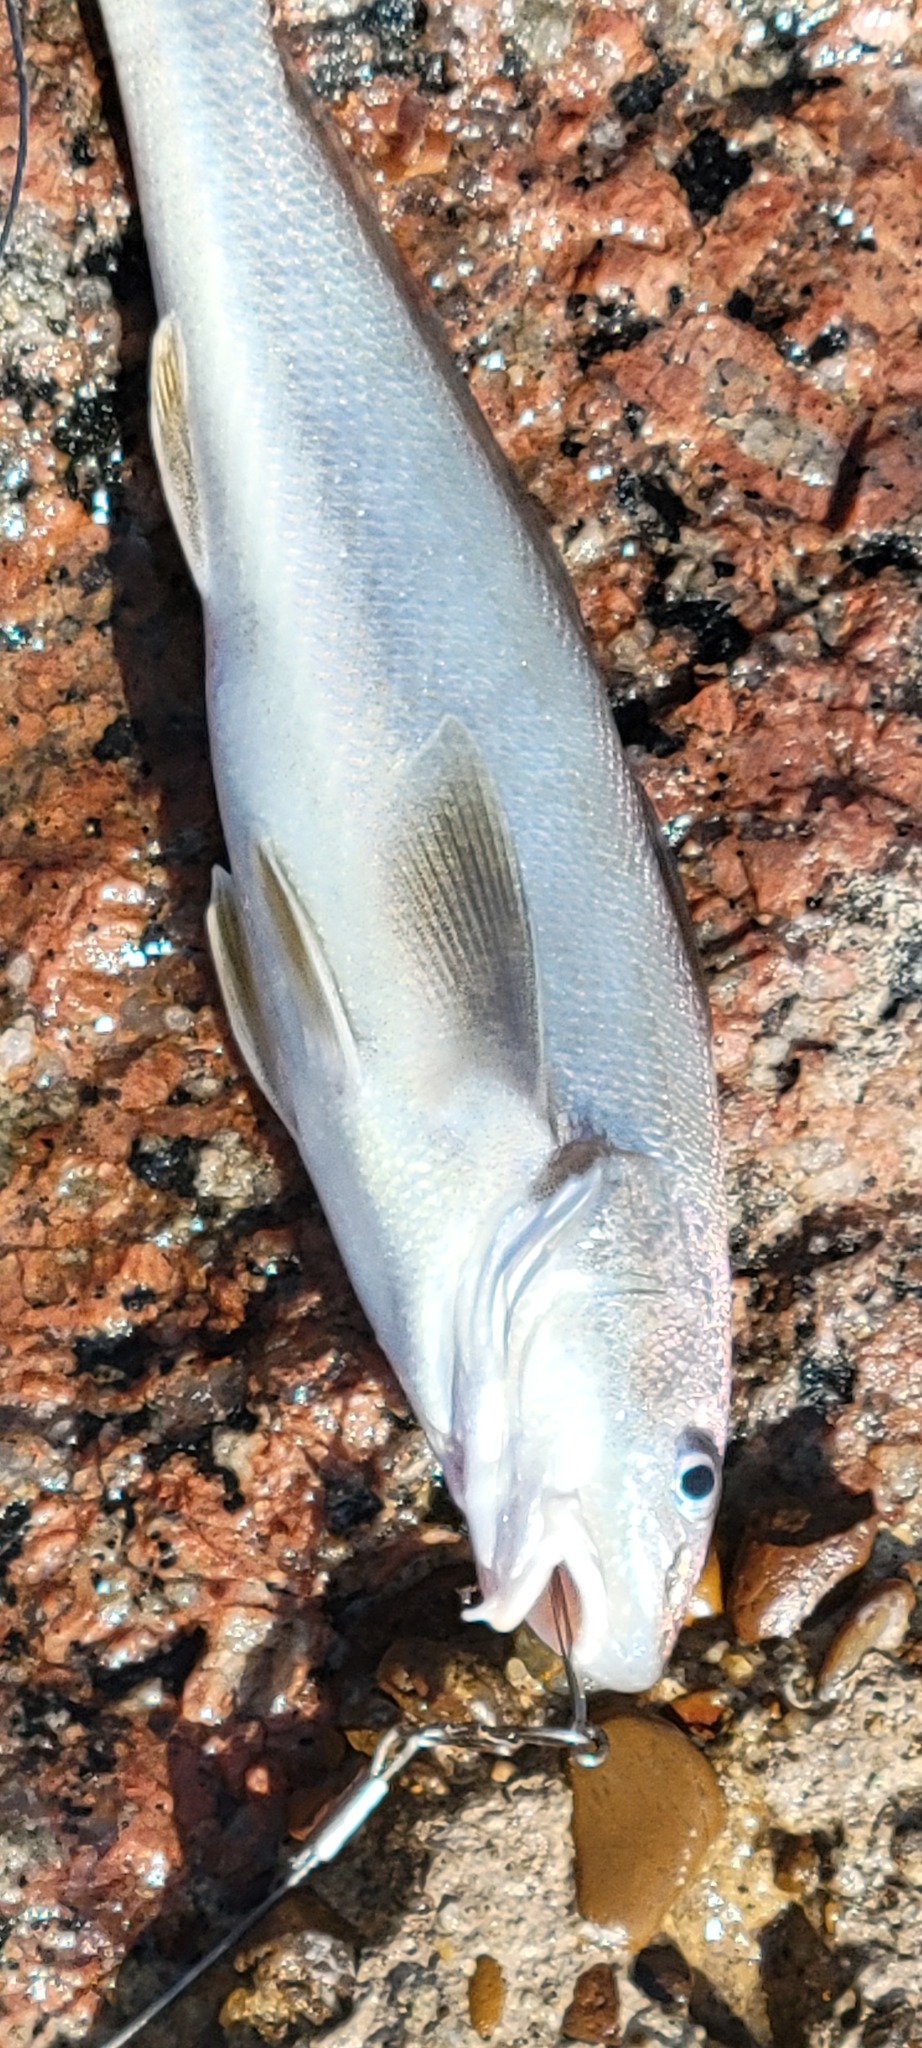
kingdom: Animalia
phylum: Chordata
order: Perciformes
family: Sciaenidae
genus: Menticirrhus
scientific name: Menticirrhus americanus
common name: Southern kingfish
